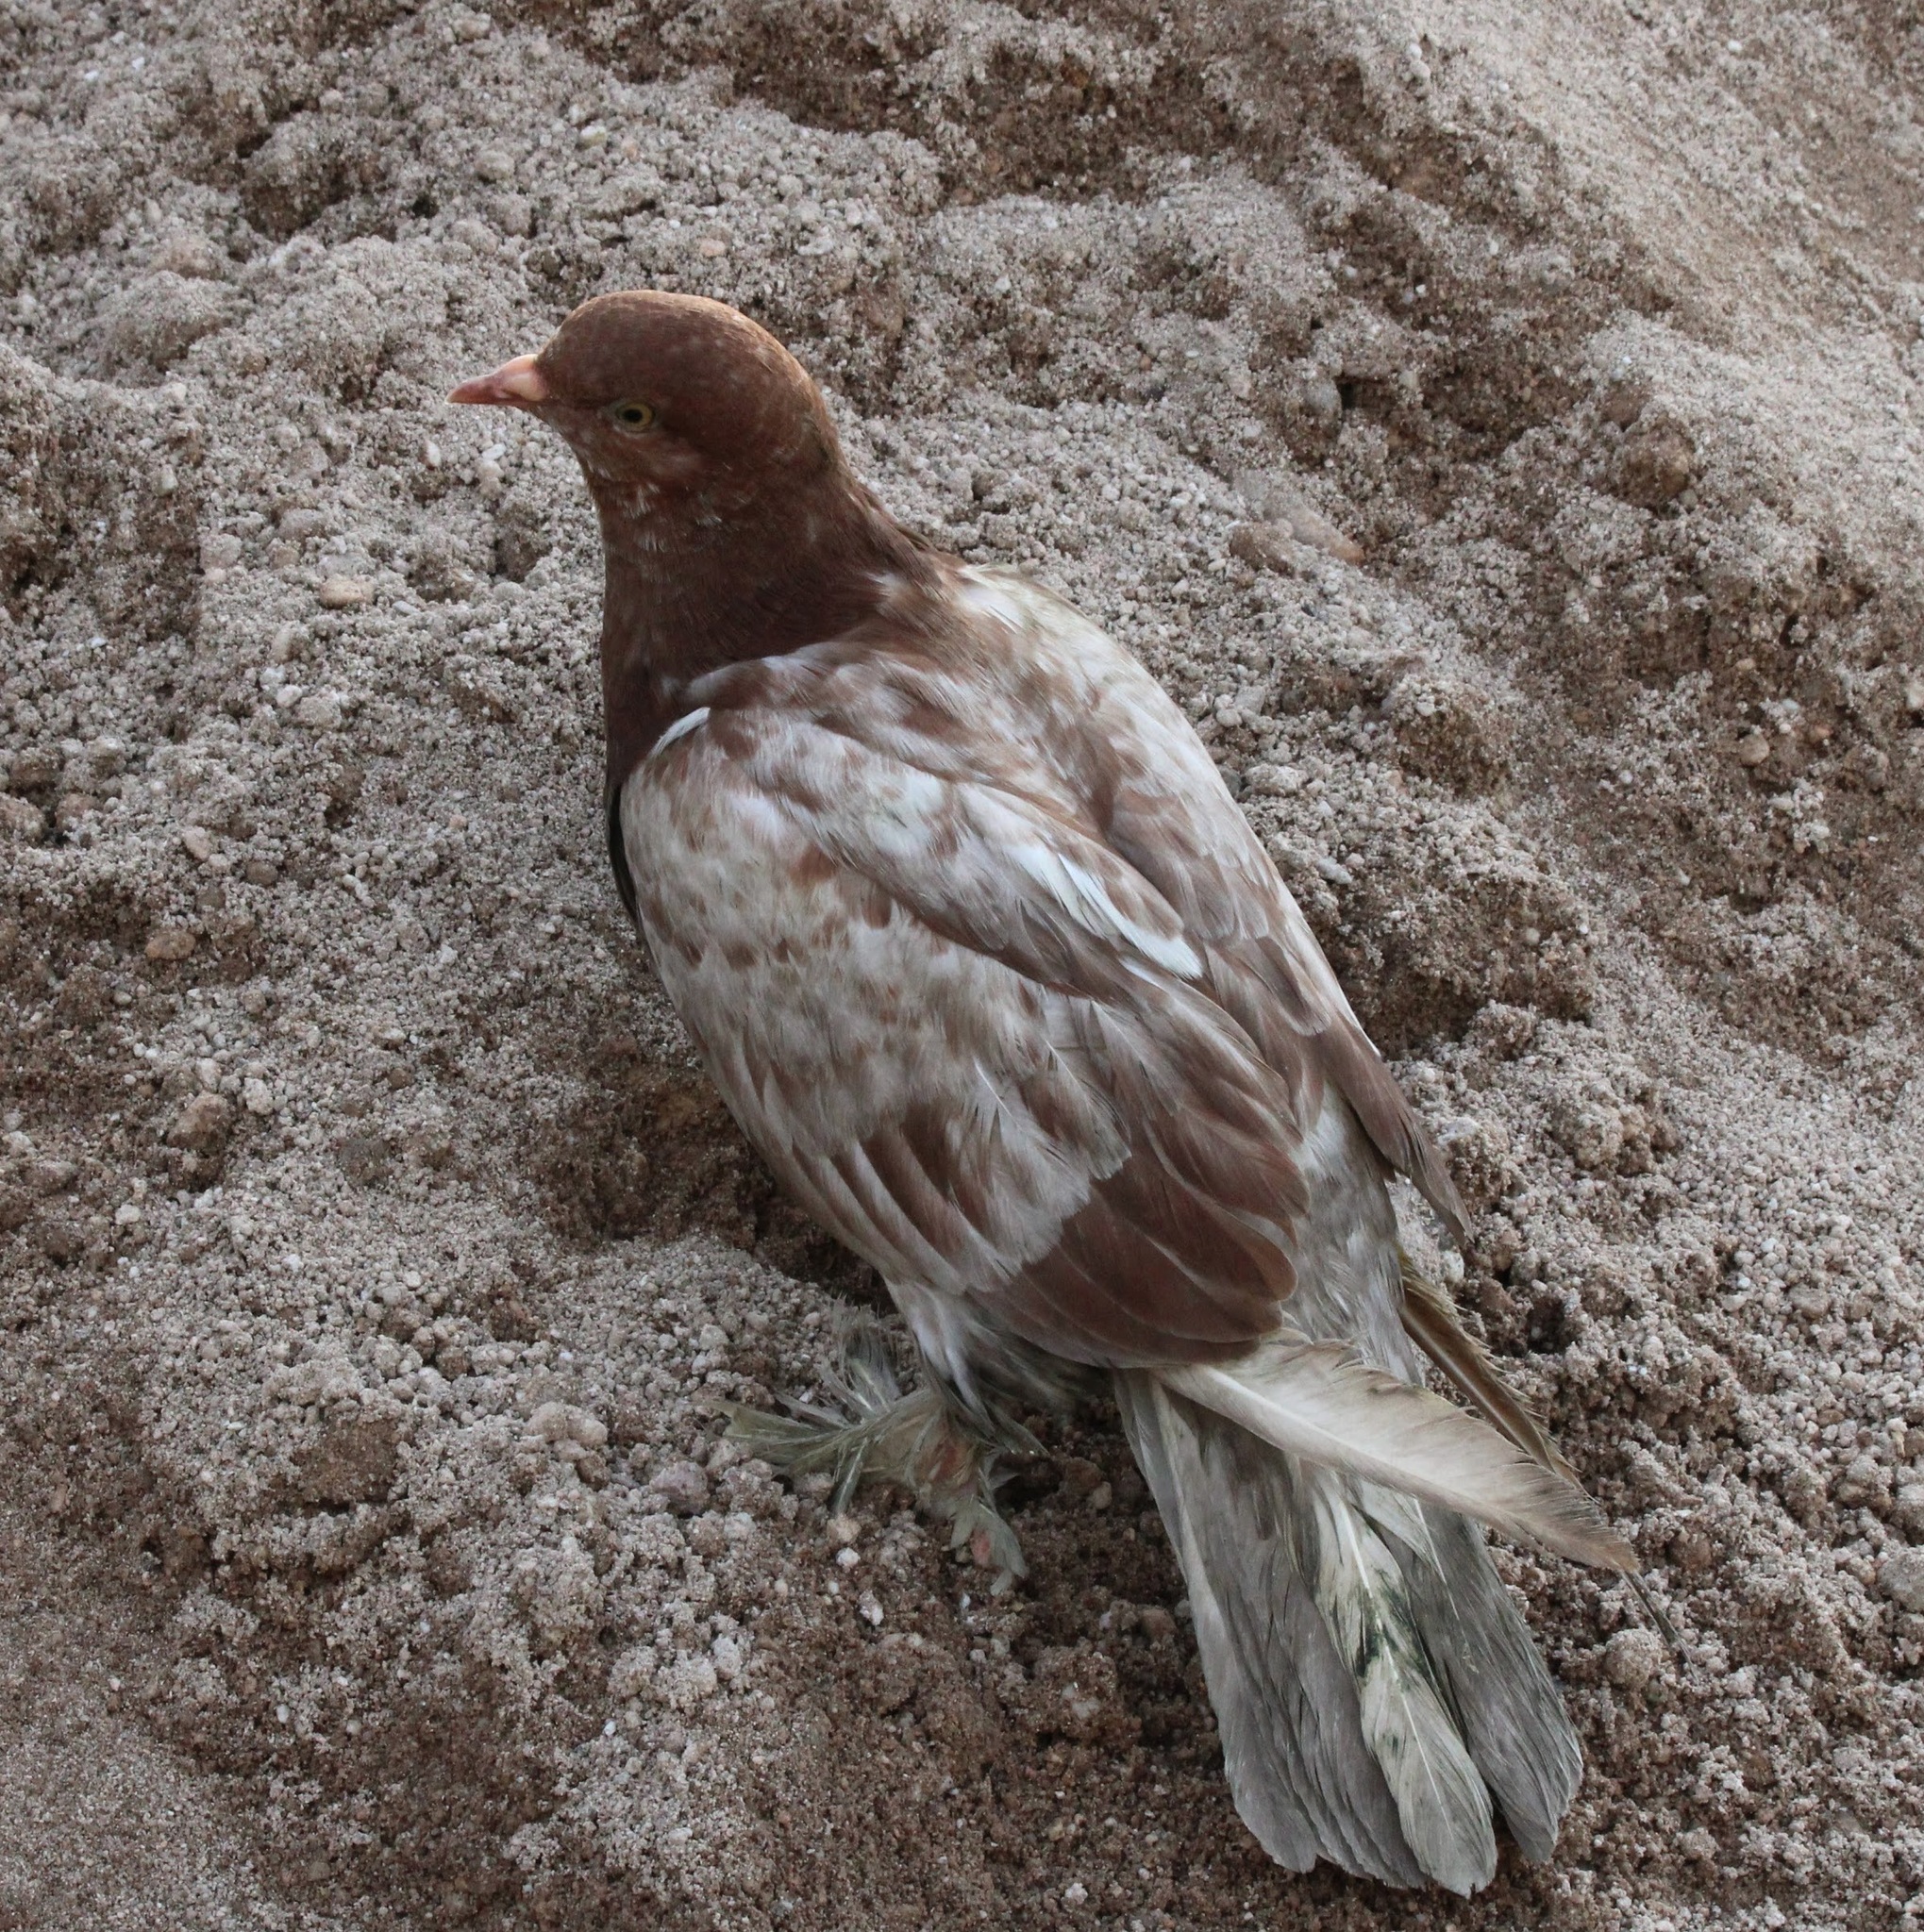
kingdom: Animalia
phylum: Chordata
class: Aves
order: Columbiformes
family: Columbidae
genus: Columba
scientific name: Columba livia
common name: Rock pigeon
